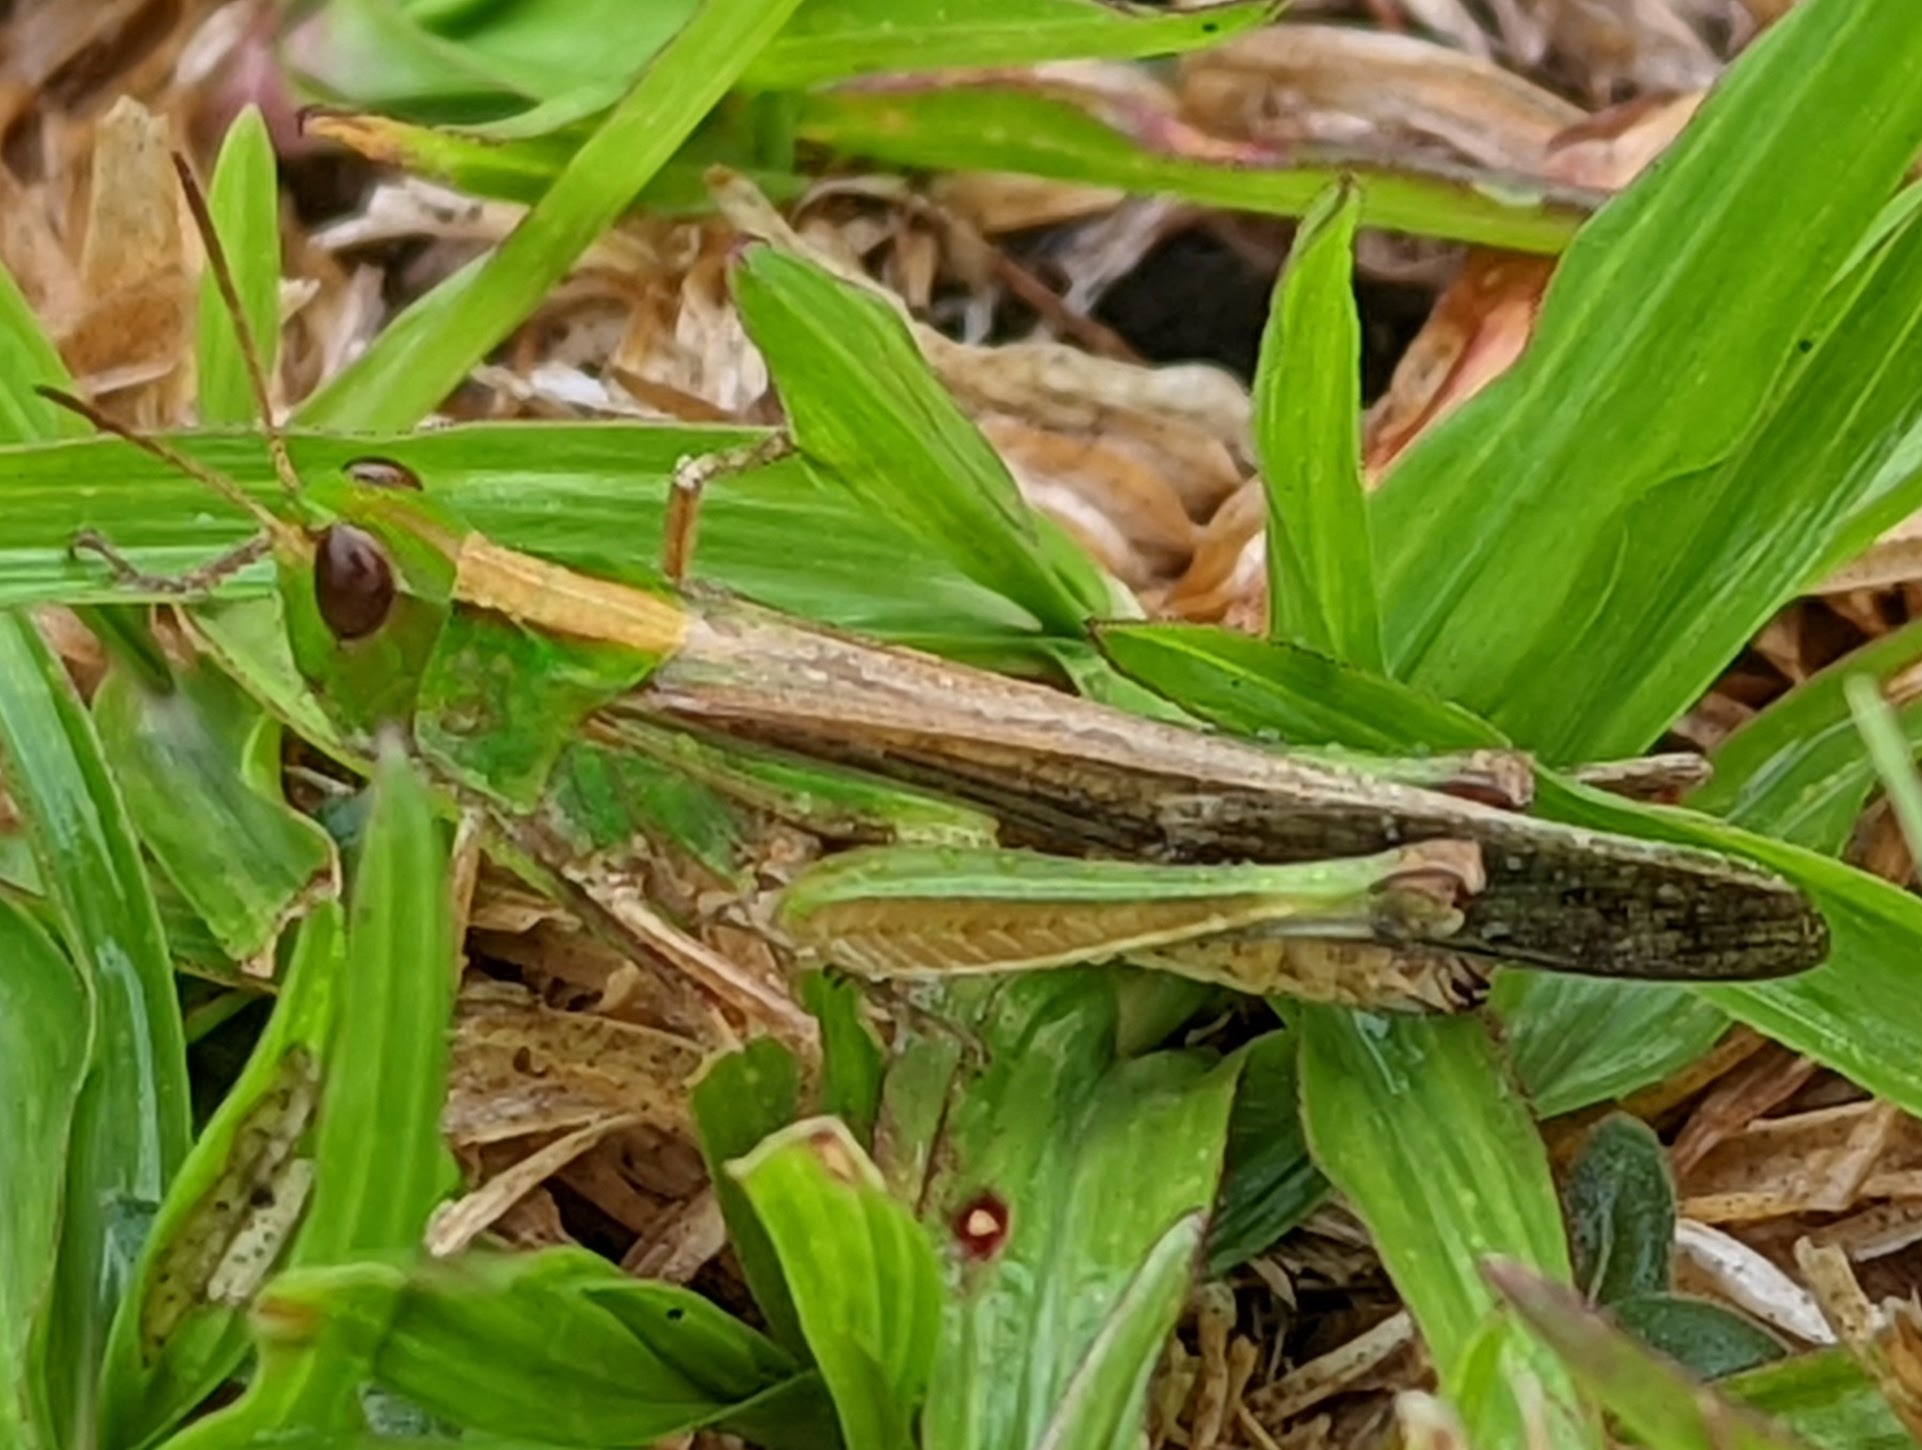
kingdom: Animalia
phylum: Arthropoda
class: Insecta
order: Orthoptera
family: Acrididae
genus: Aiolopus
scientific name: Aiolopus thalassinus
